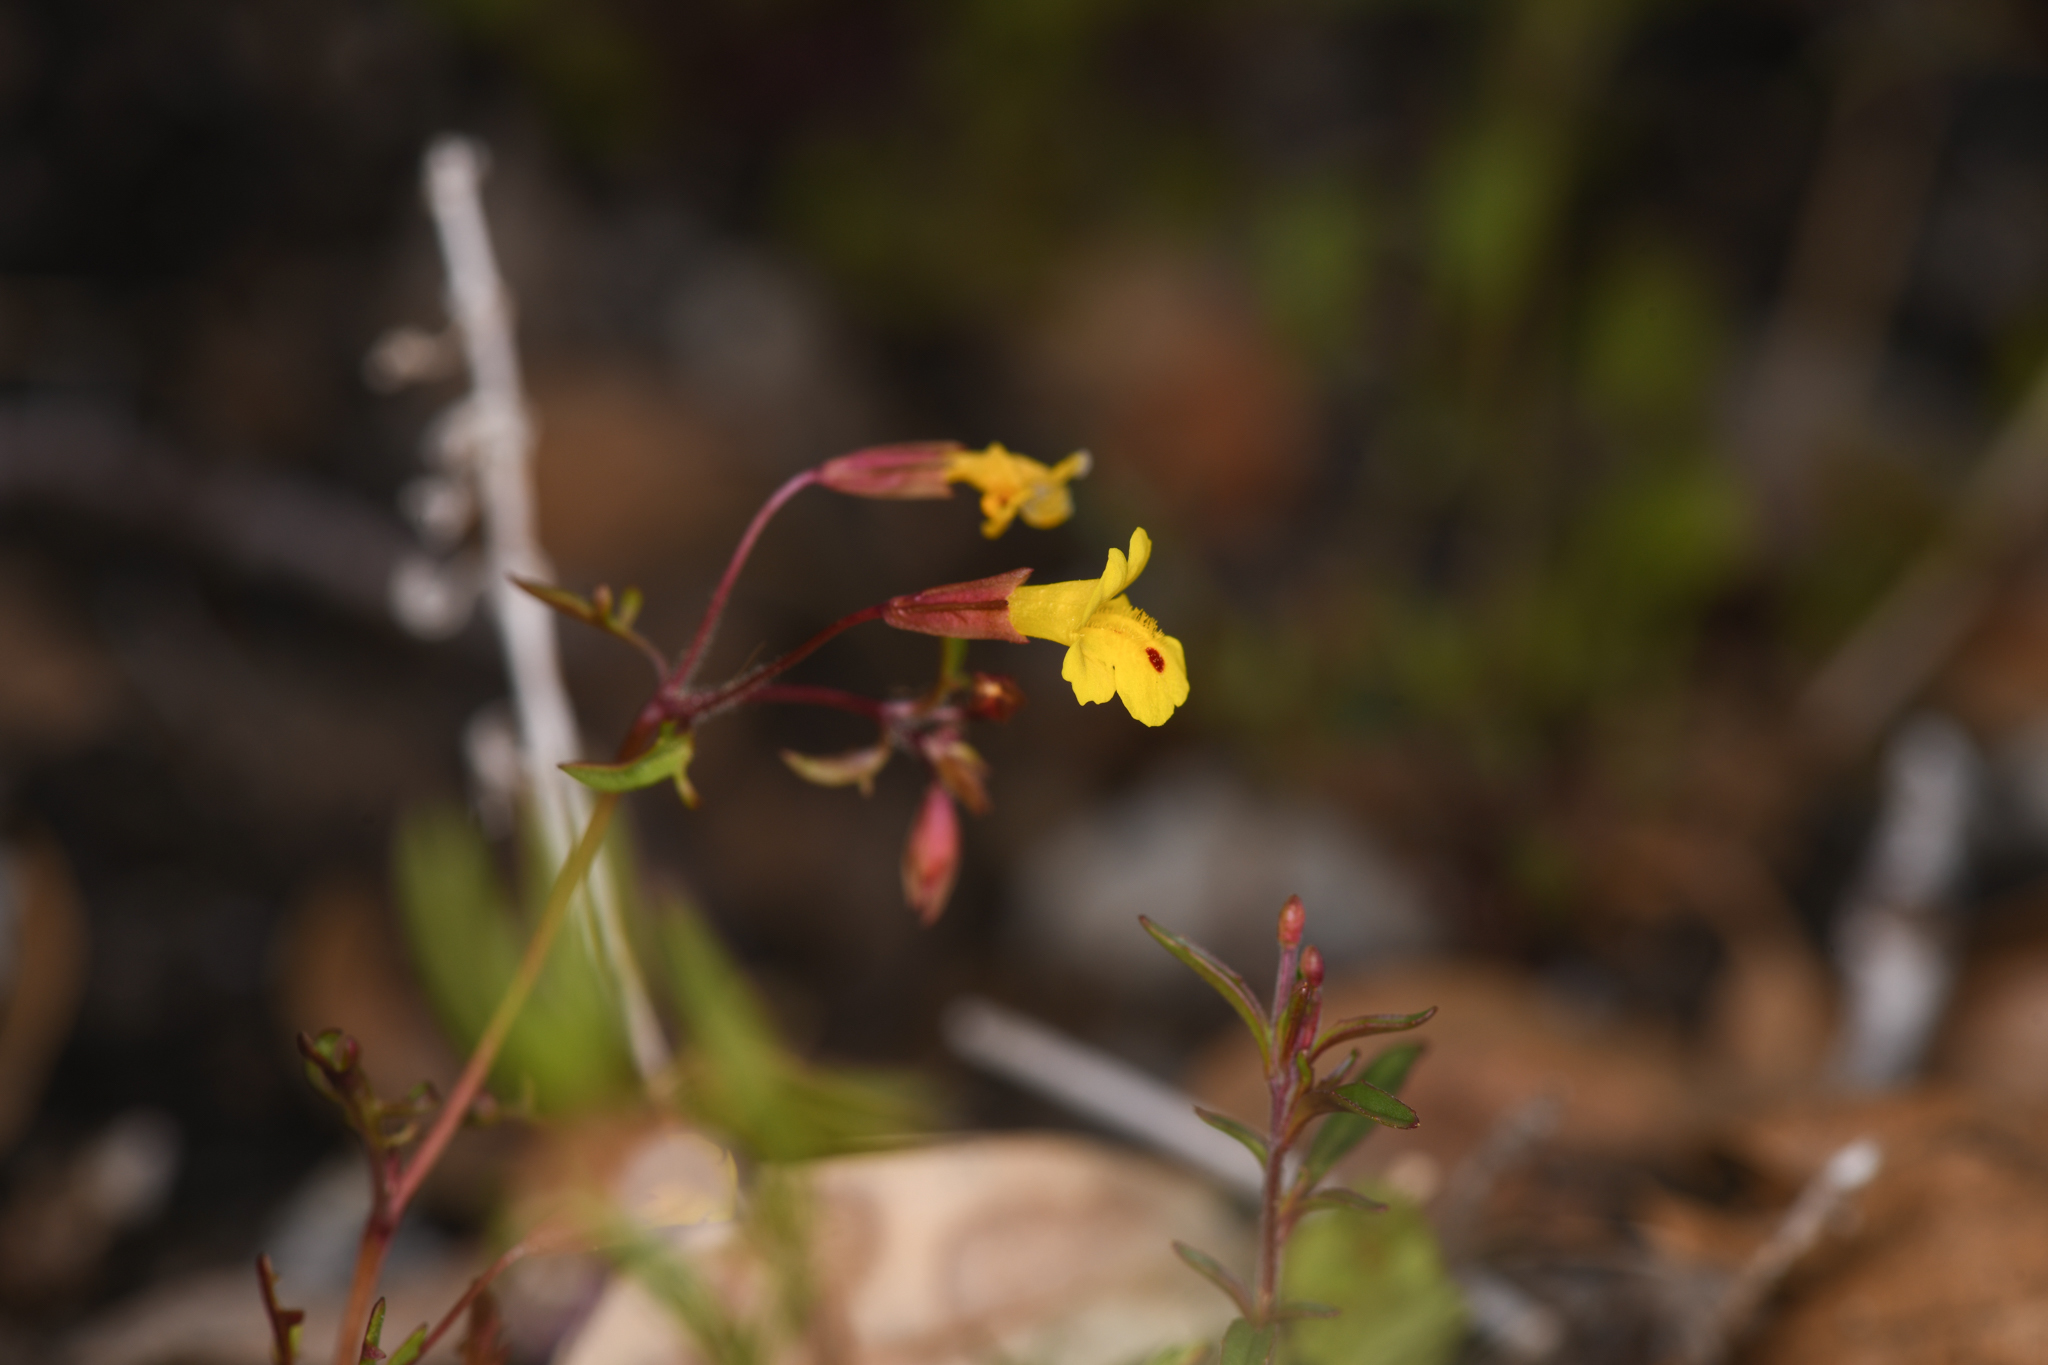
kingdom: Plantae
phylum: Tracheophyta
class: Magnoliopsida
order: Lamiales
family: Phrymaceae
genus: Erythranthe
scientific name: Erythranthe laciniata
